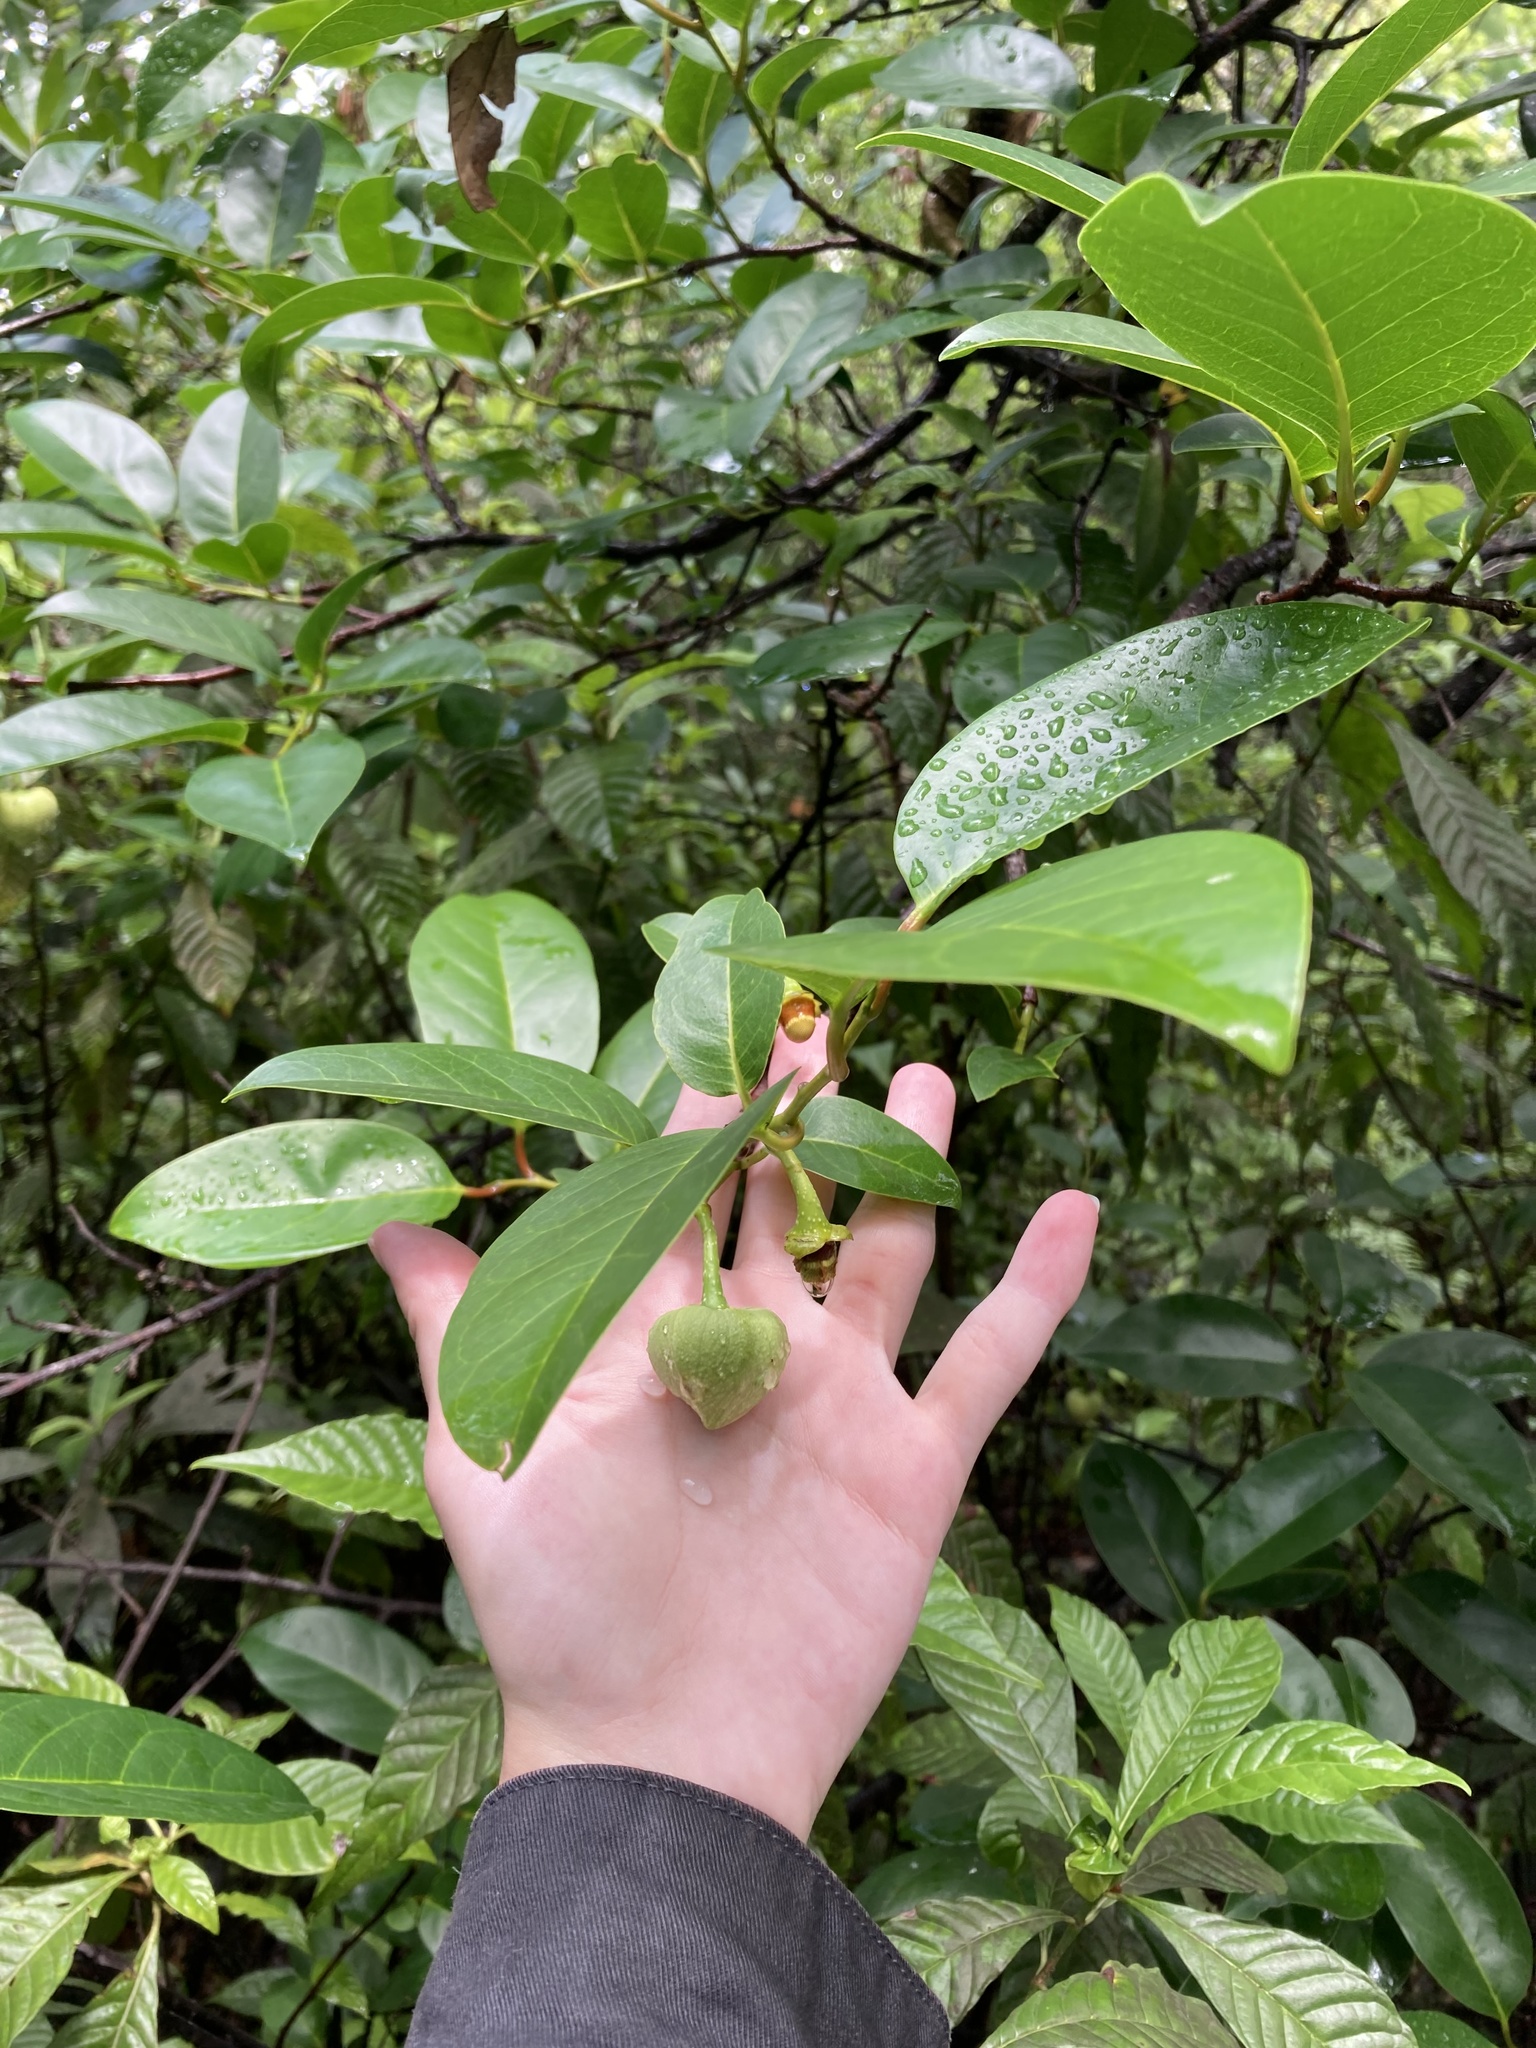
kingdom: Plantae
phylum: Tracheophyta
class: Magnoliopsida
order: Magnoliales
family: Annonaceae
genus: Annona
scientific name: Annona glabra
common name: Monkey apple
